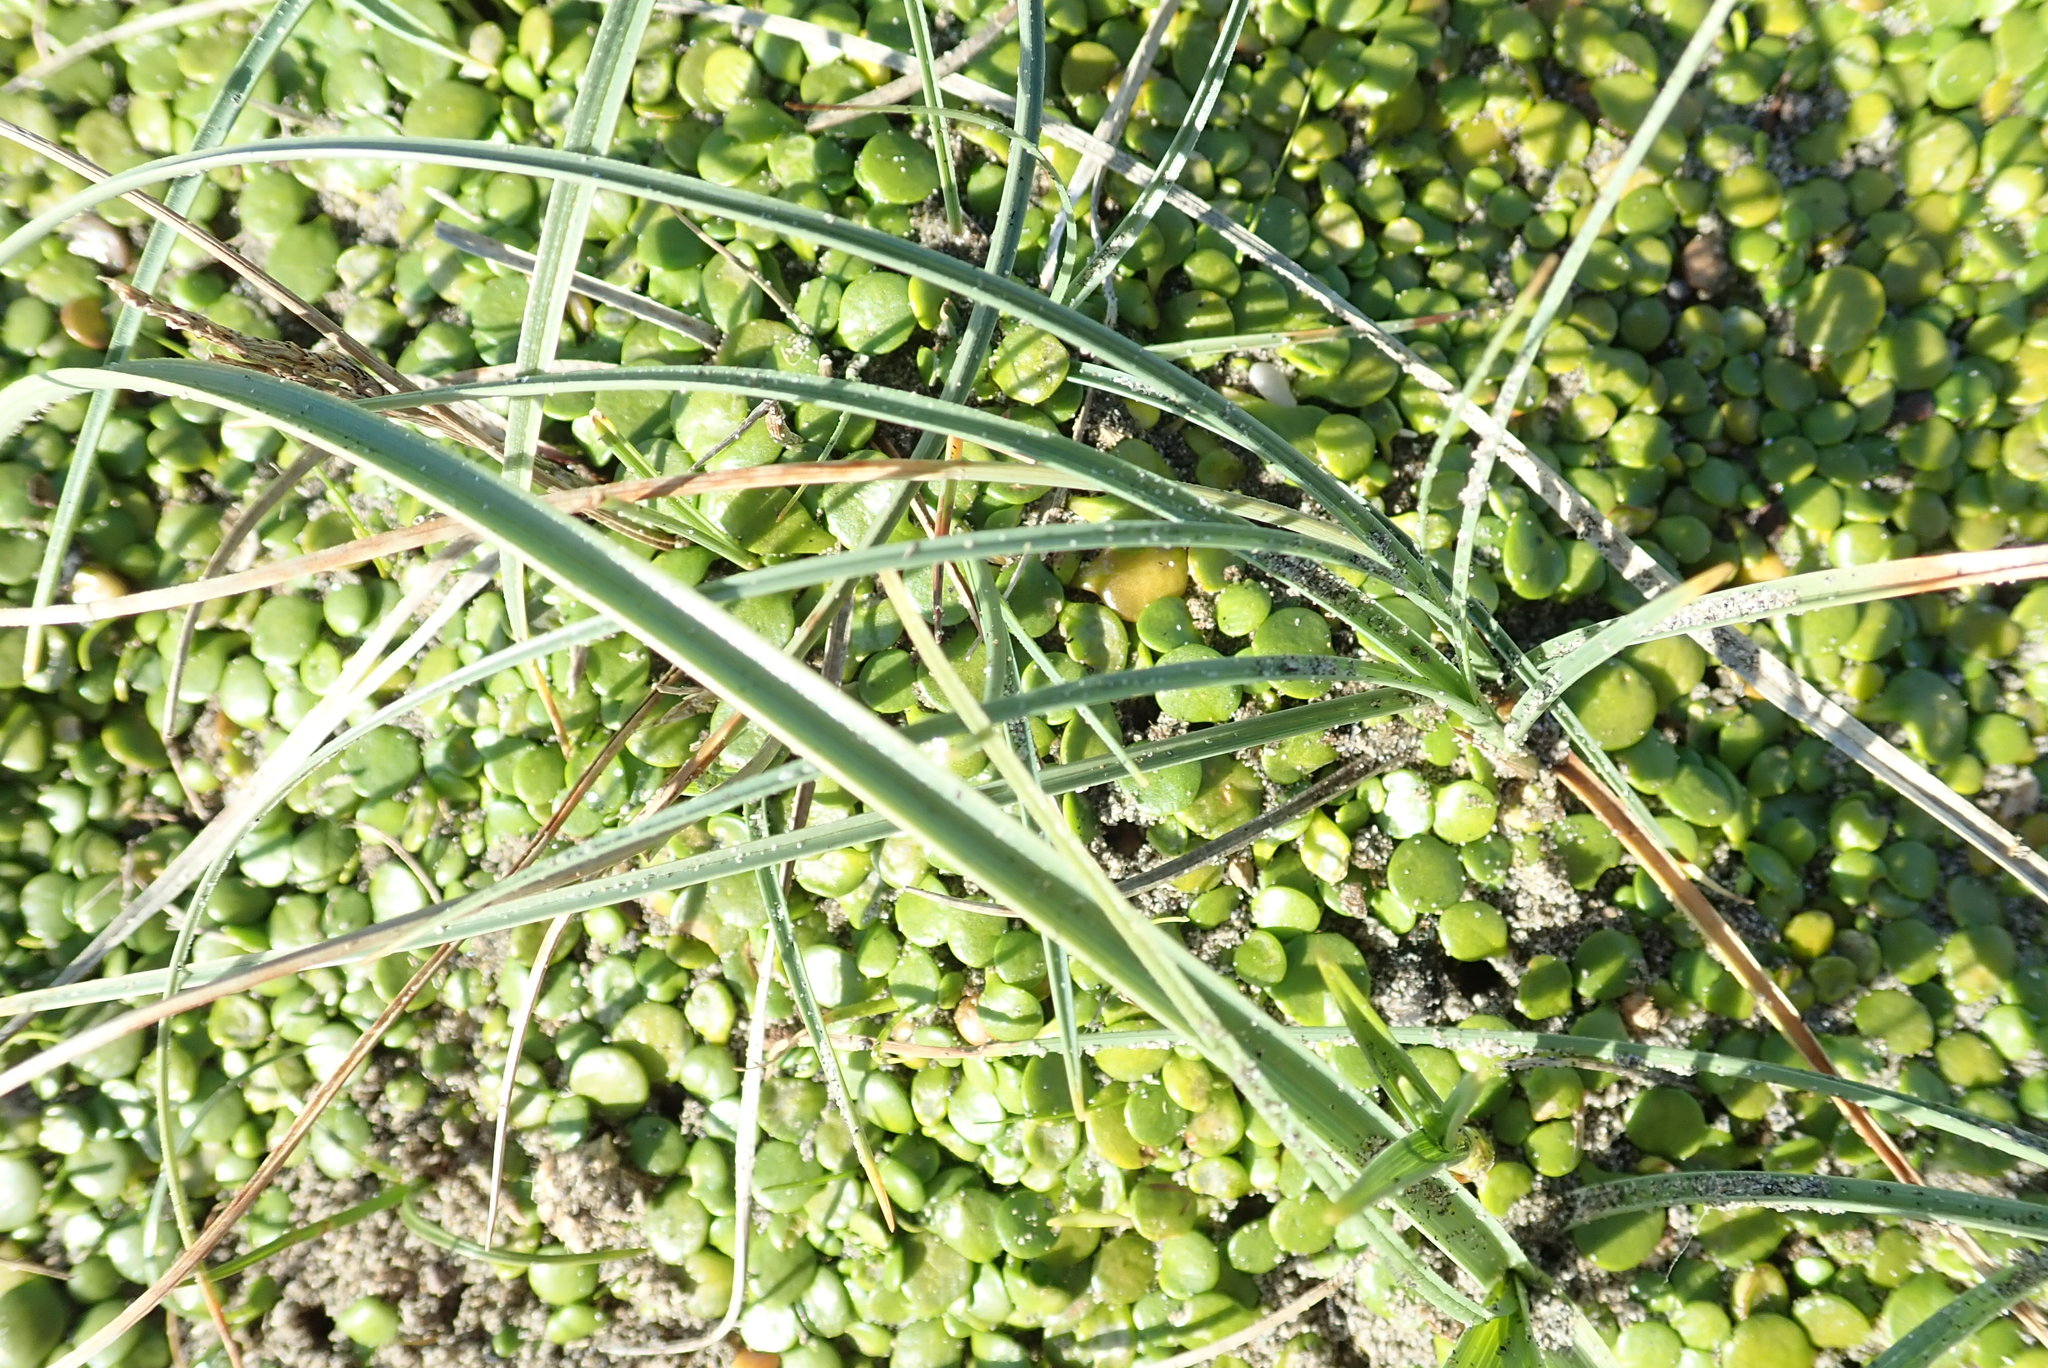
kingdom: Plantae
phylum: Tracheophyta
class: Liliopsida
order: Poales
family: Cyperaceae
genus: Carex
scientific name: Carex pumila
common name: Dwarf sedge
